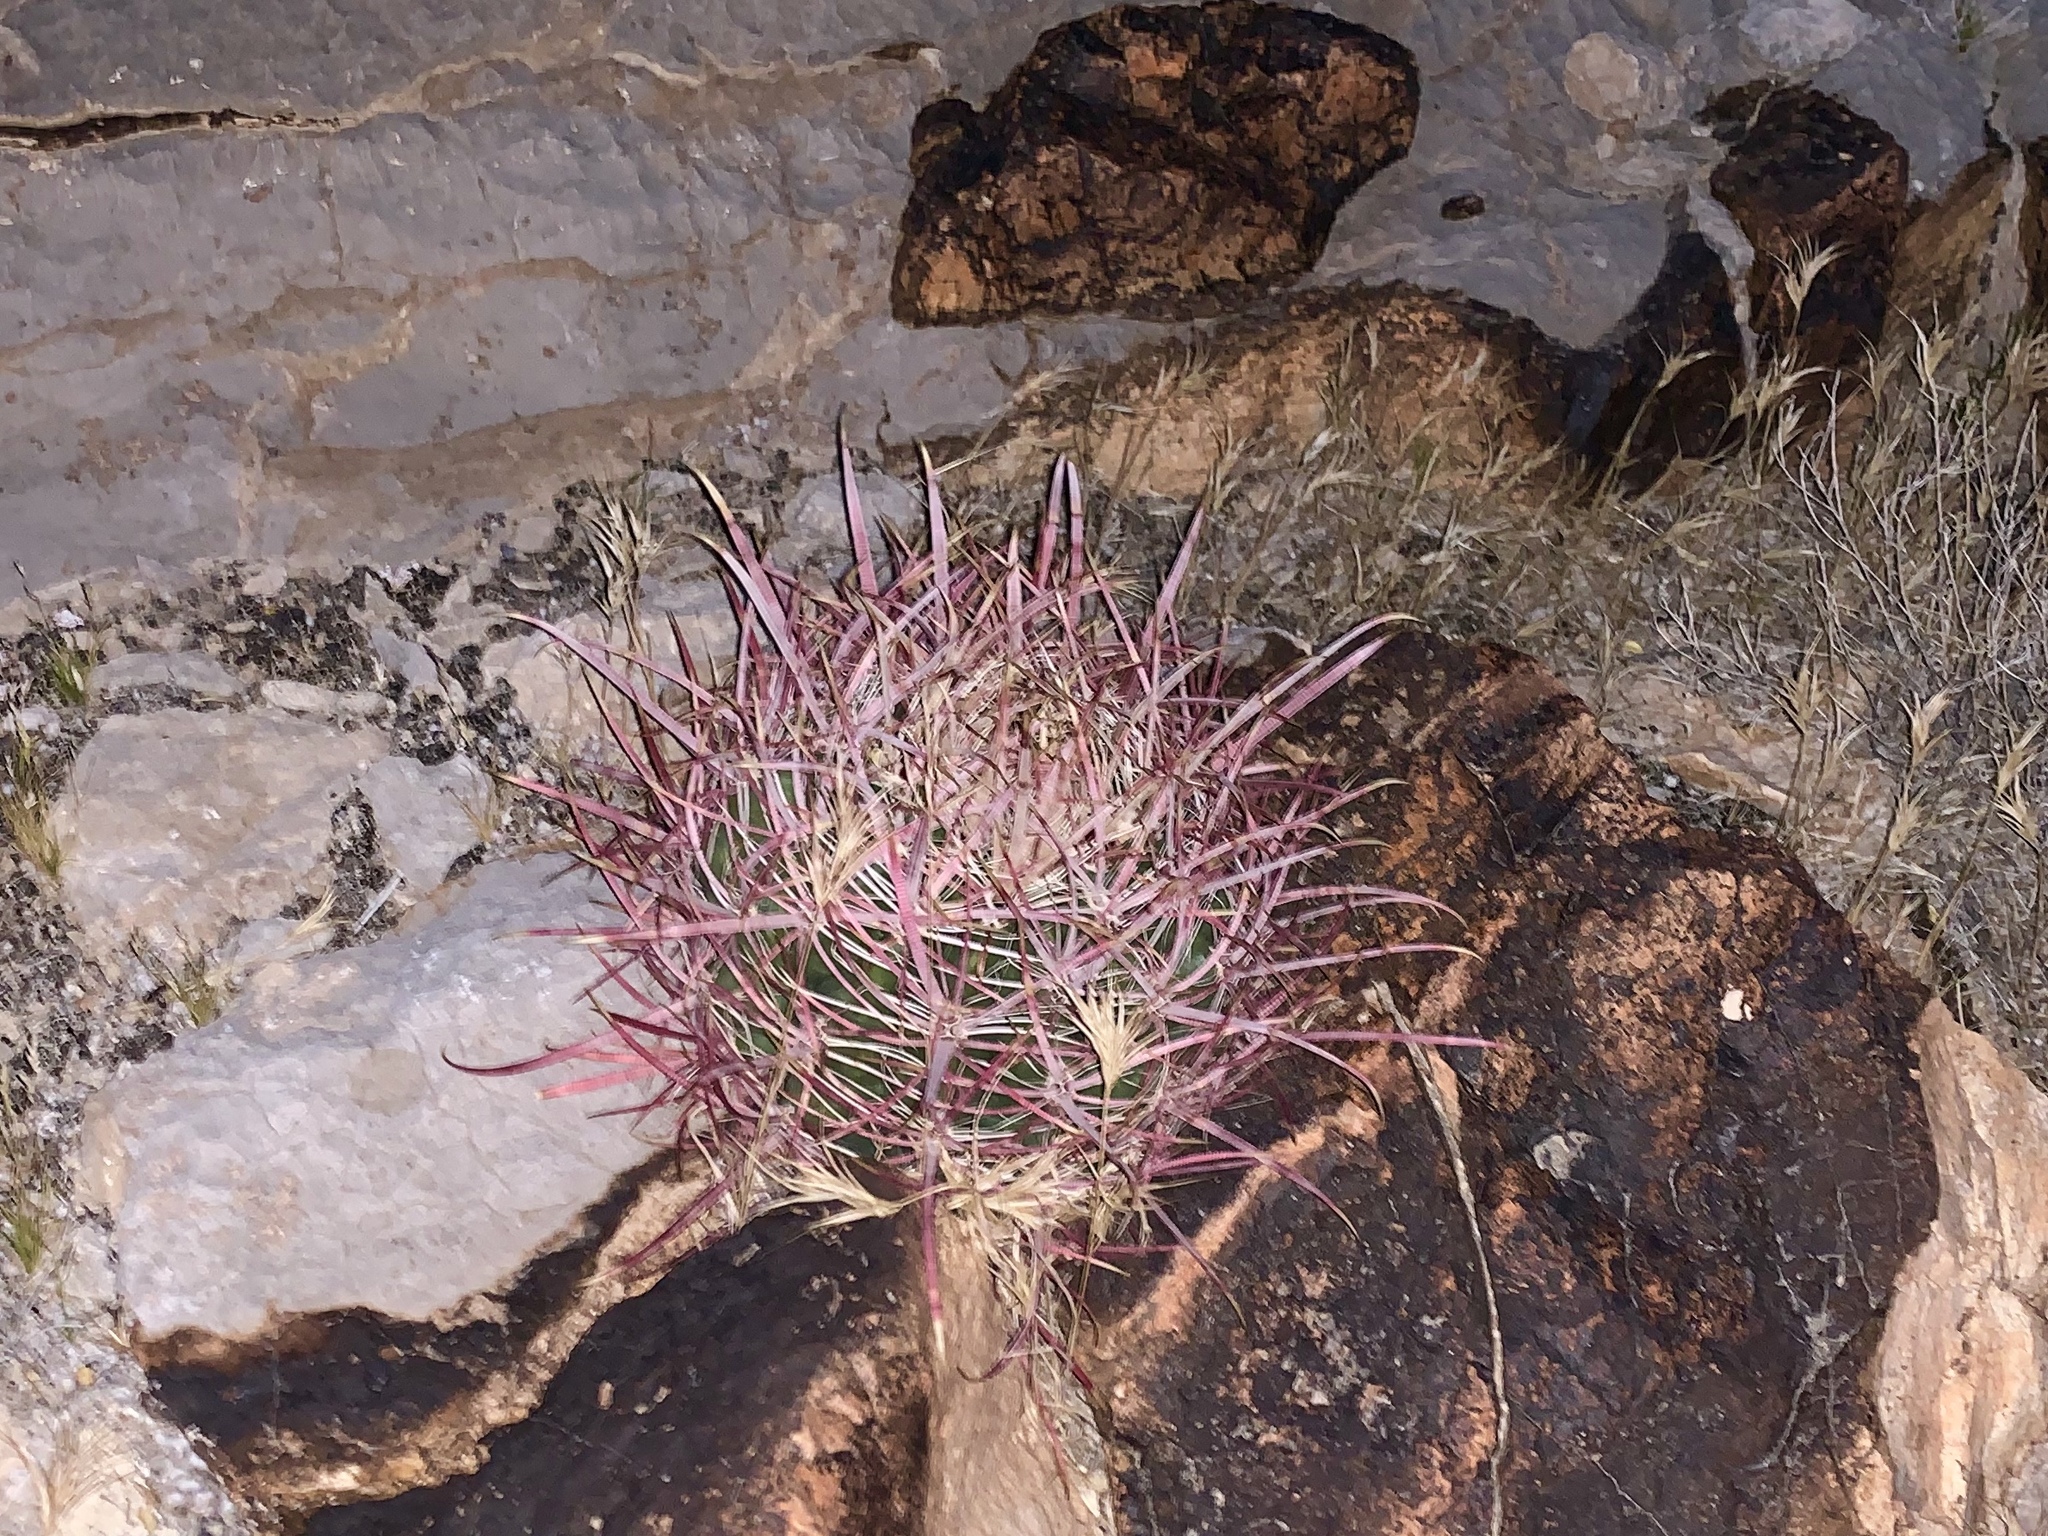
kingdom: Plantae
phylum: Tracheophyta
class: Magnoliopsida
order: Caryophyllales
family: Cactaceae
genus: Ferocactus
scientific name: Ferocactus cylindraceus
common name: California barrel cactus
